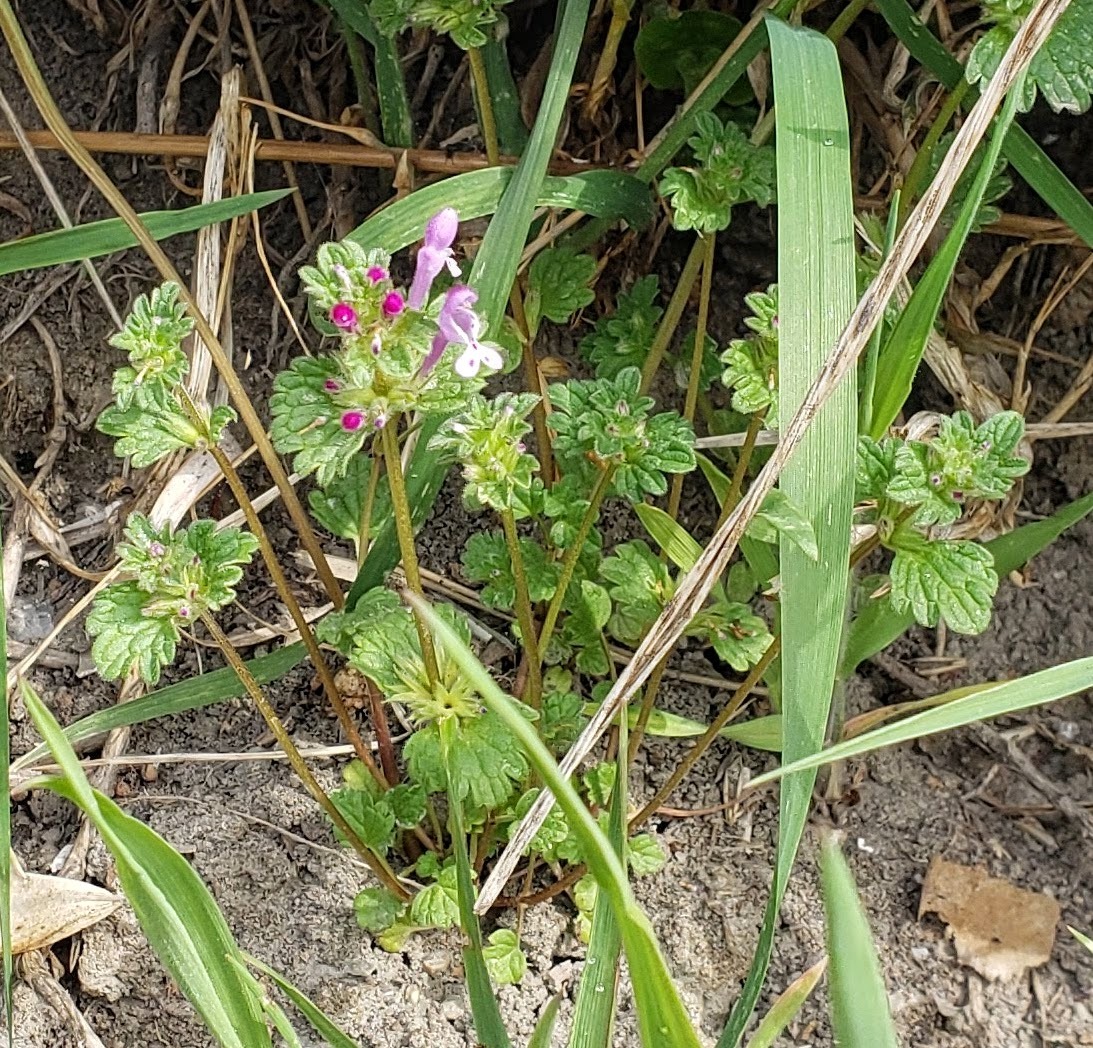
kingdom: Plantae
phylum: Tracheophyta
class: Magnoliopsida
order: Lamiales
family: Lamiaceae
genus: Lamium
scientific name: Lamium amplexicaule
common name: Henbit dead-nettle
